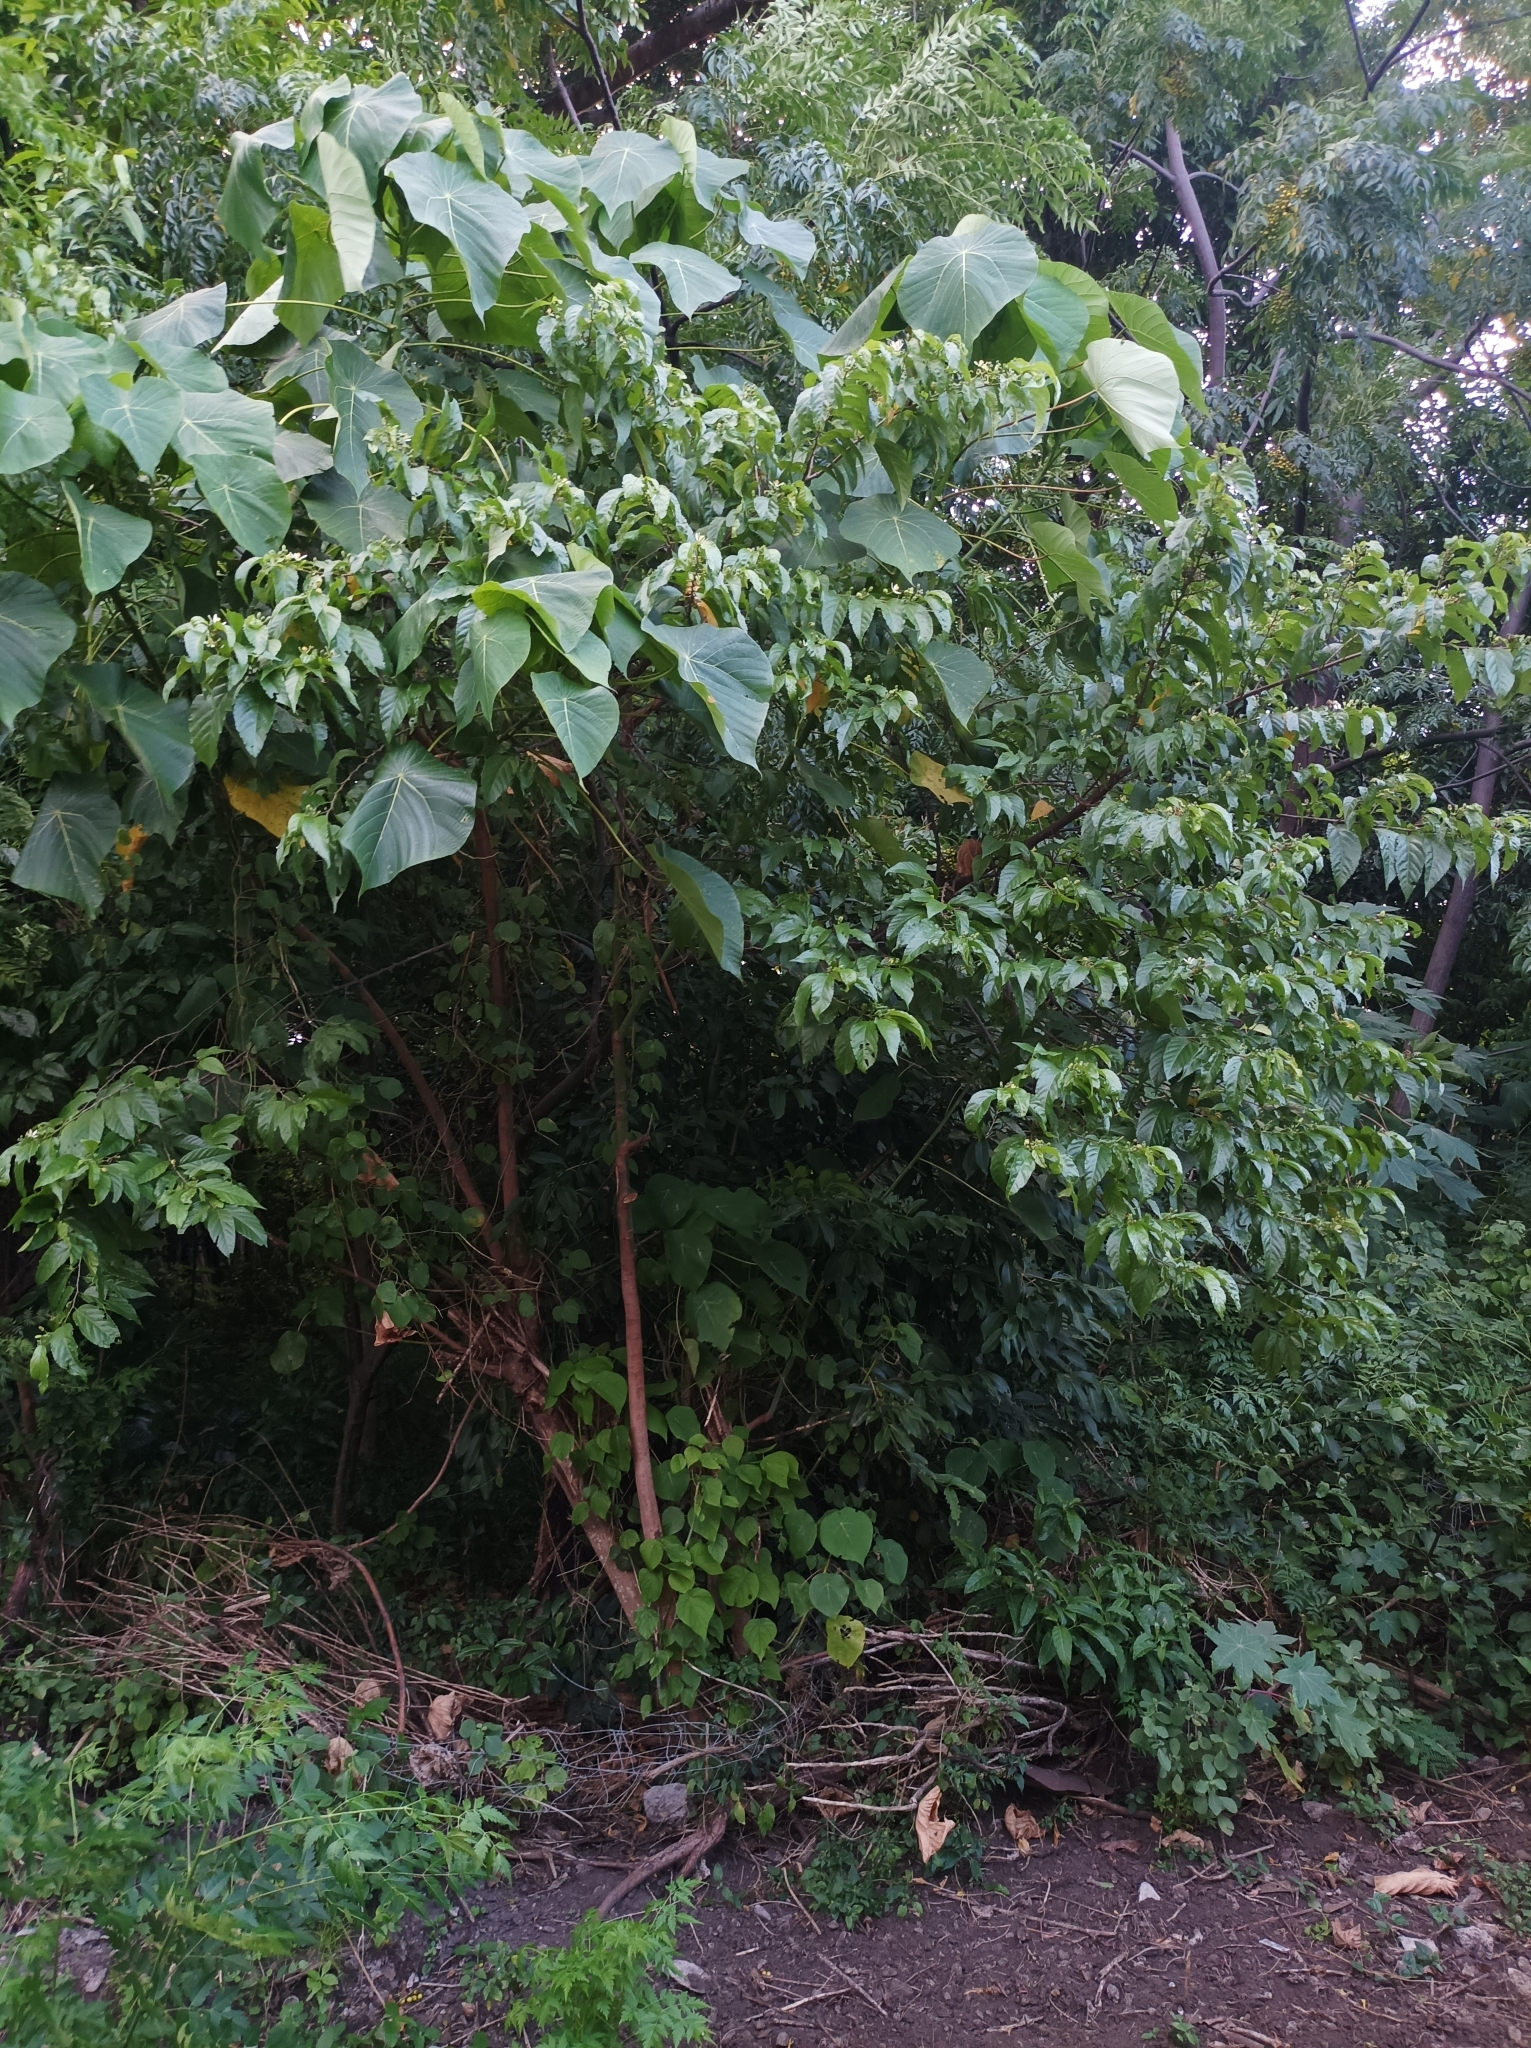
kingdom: Plantae
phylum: Tracheophyta
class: Magnoliopsida
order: Malvales
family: Malvaceae
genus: Grewia
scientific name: Grewia crenata
